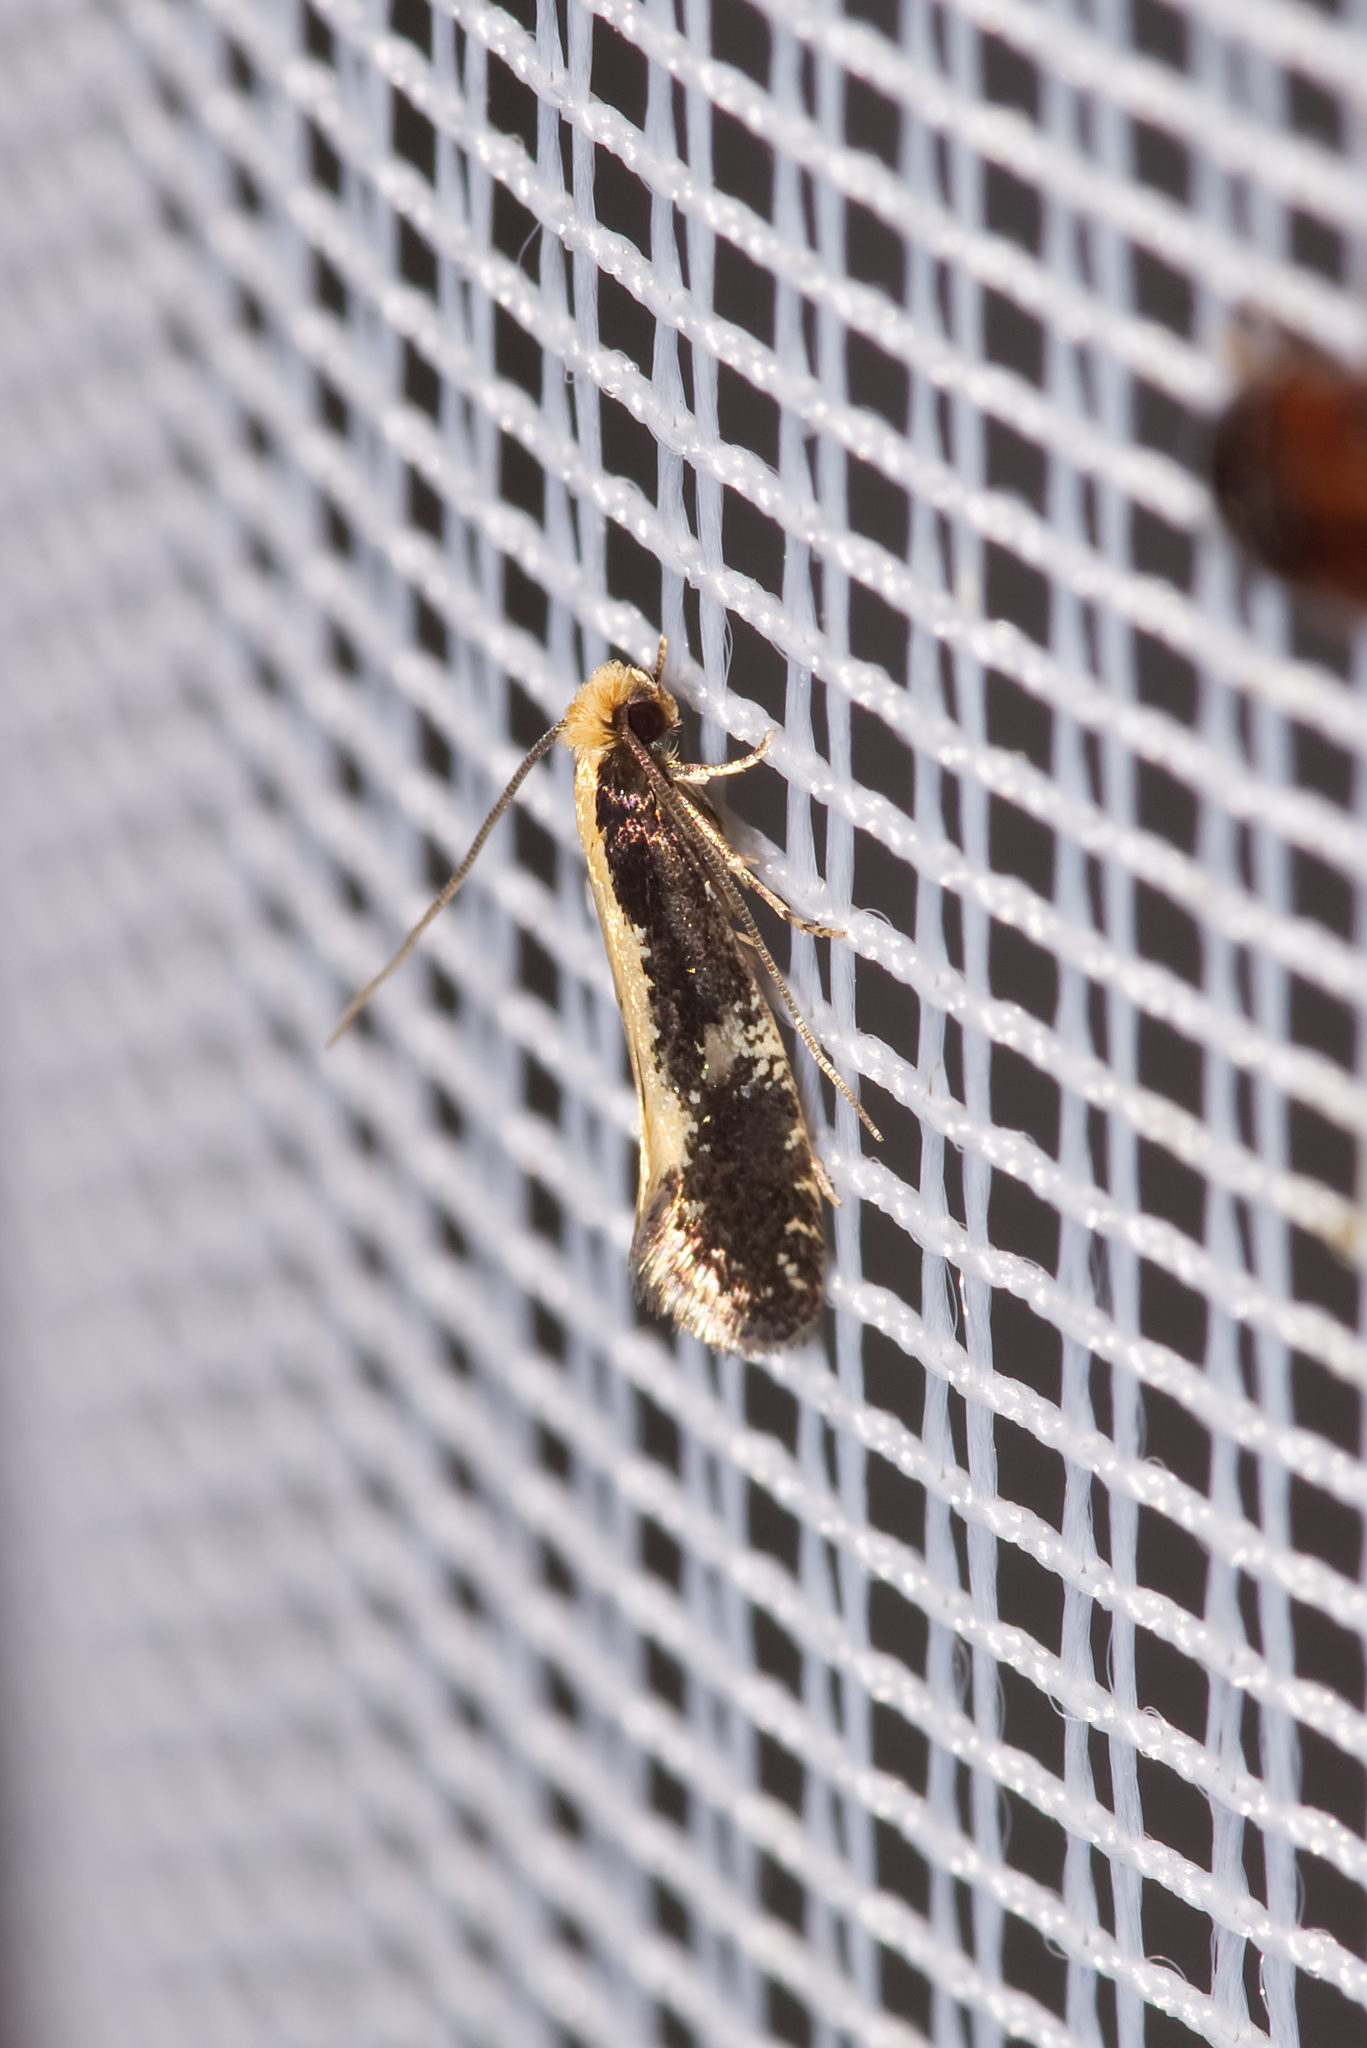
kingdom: Animalia
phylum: Arthropoda
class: Insecta
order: Lepidoptera
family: Tineidae
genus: Monopis
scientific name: Monopis obviella
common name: Tineid moth
